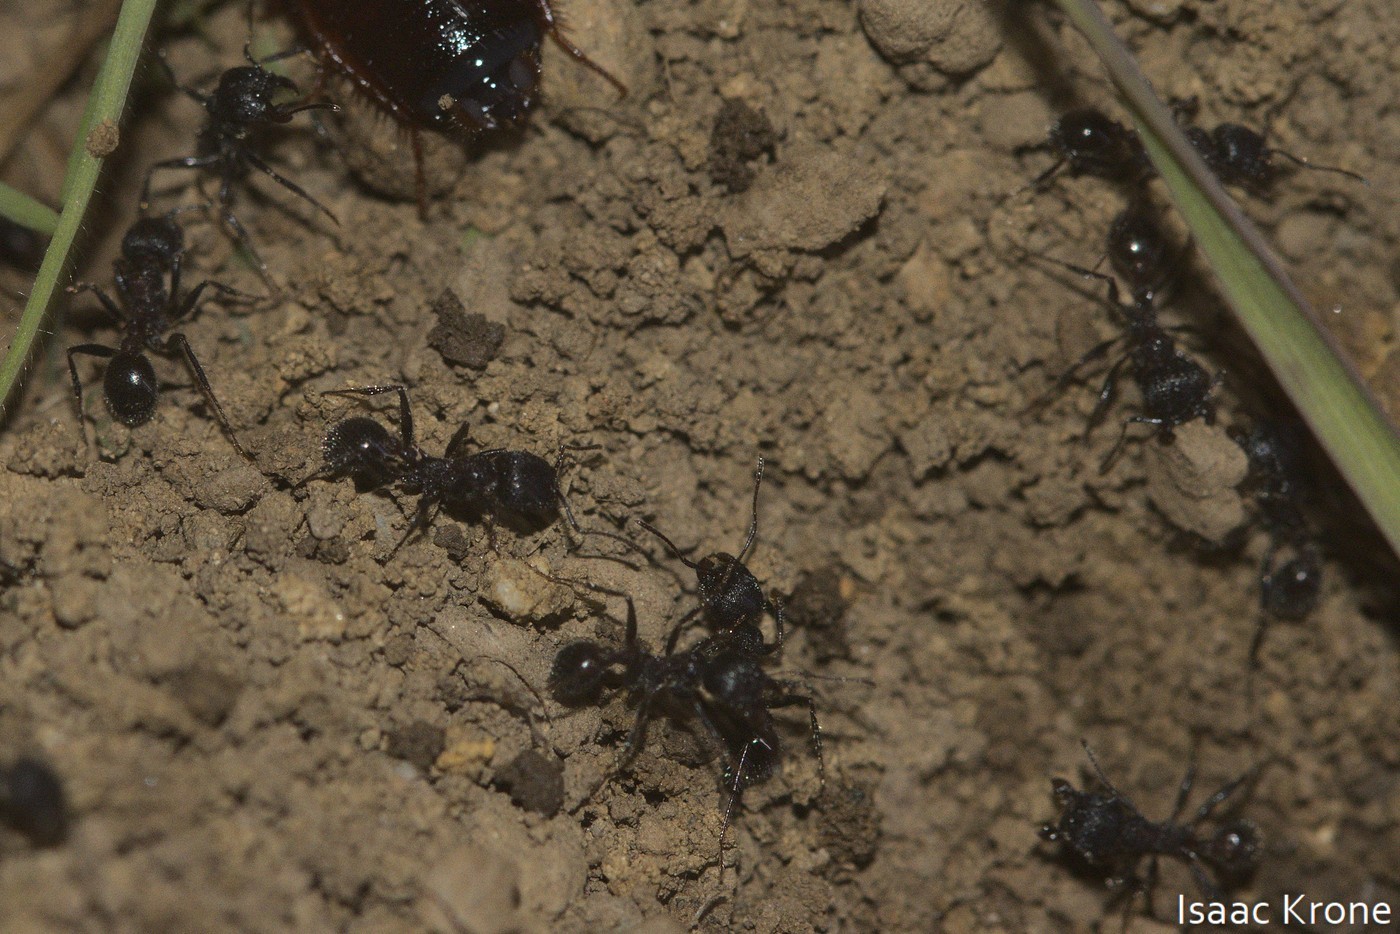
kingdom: Animalia
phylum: Arthropoda
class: Insecta
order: Hymenoptera
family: Formicidae
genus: Veromessor
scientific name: Veromessor andrei
